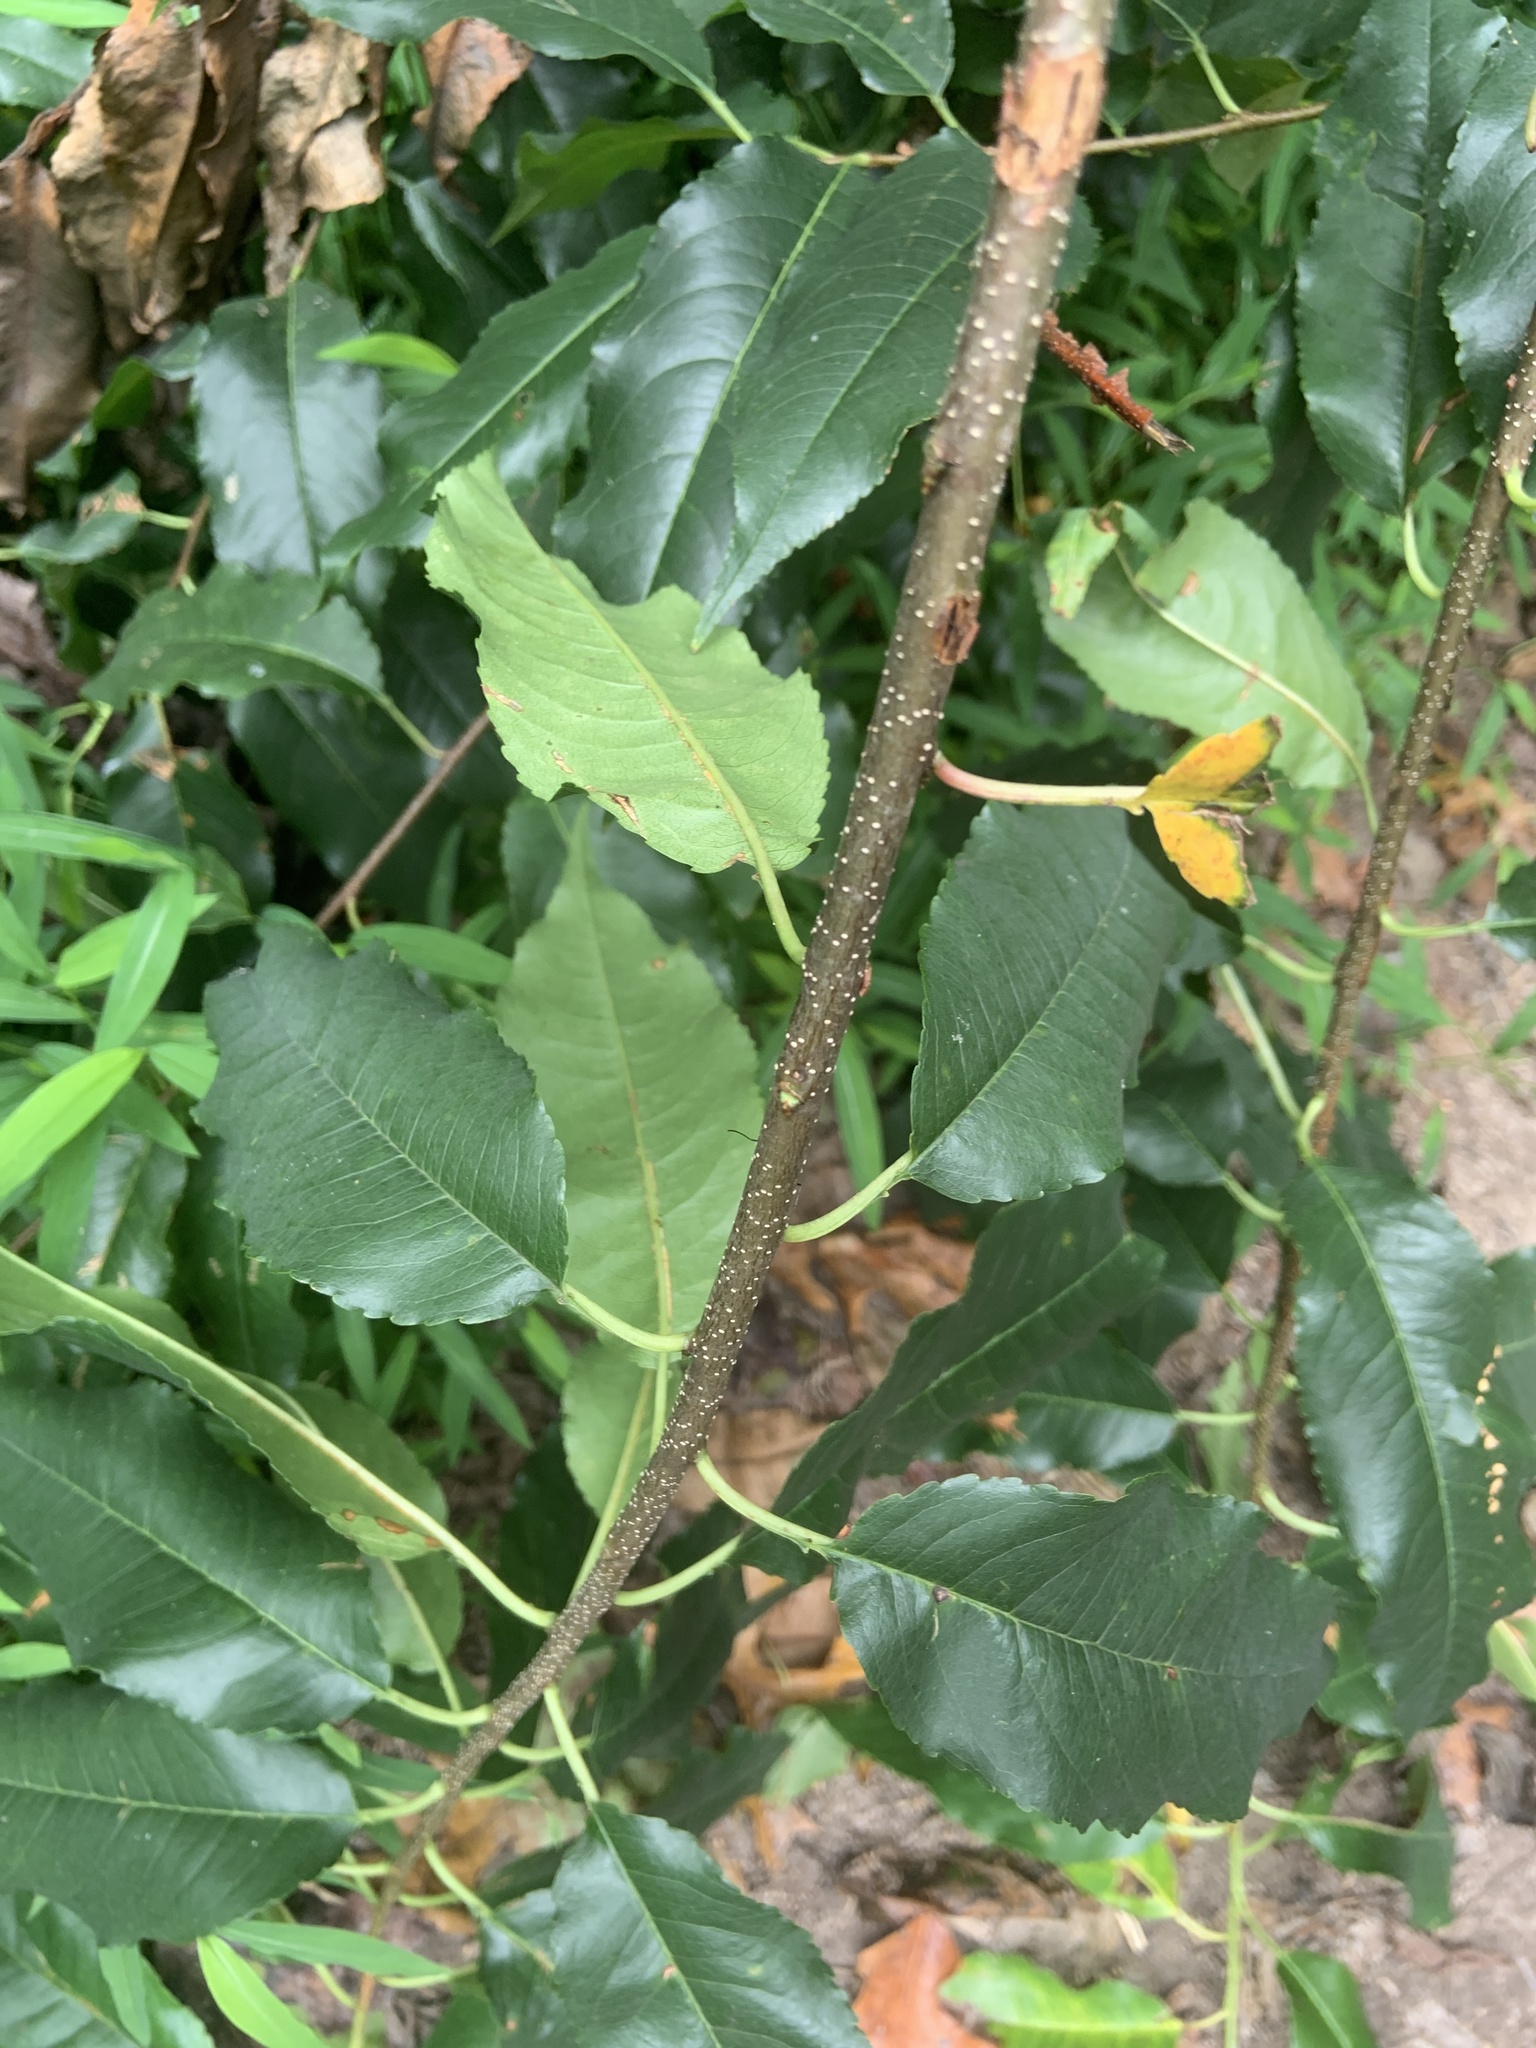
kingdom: Plantae
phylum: Tracheophyta
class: Magnoliopsida
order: Rosales
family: Rosaceae
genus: Prunus
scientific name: Prunus avium
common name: Sweet cherry
